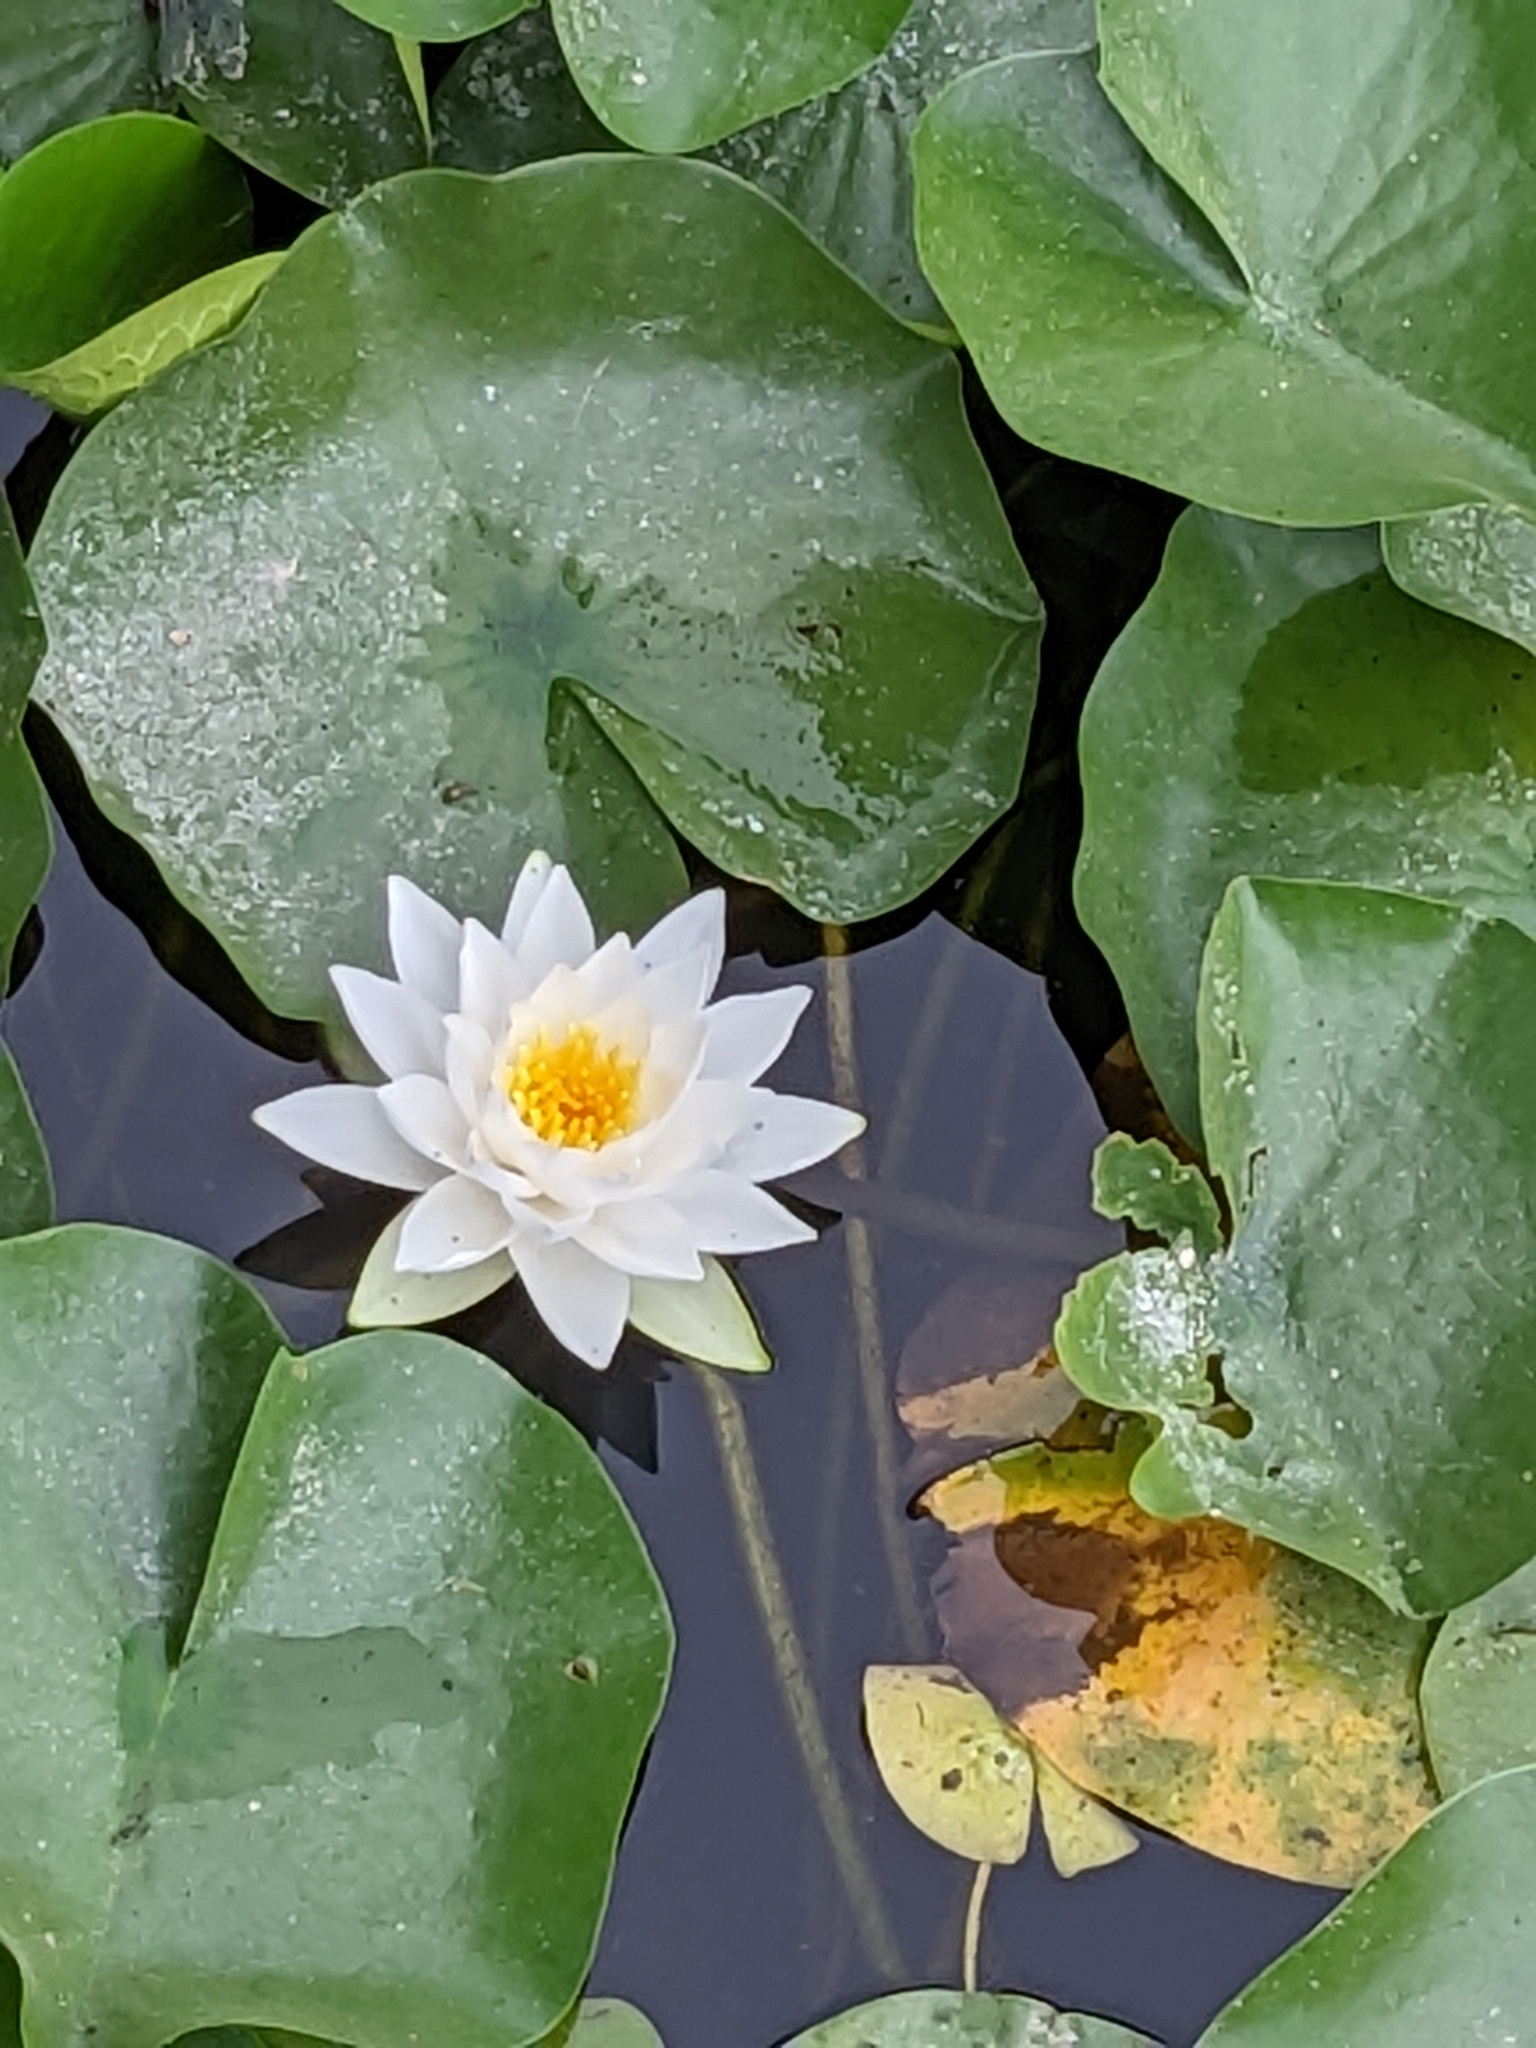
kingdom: Plantae
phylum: Tracheophyta
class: Magnoliopsida
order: Nymphaeales
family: Nymphaeaceae
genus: Nymphaea
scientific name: Nymphaea odorata
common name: Fragrant water-lily
